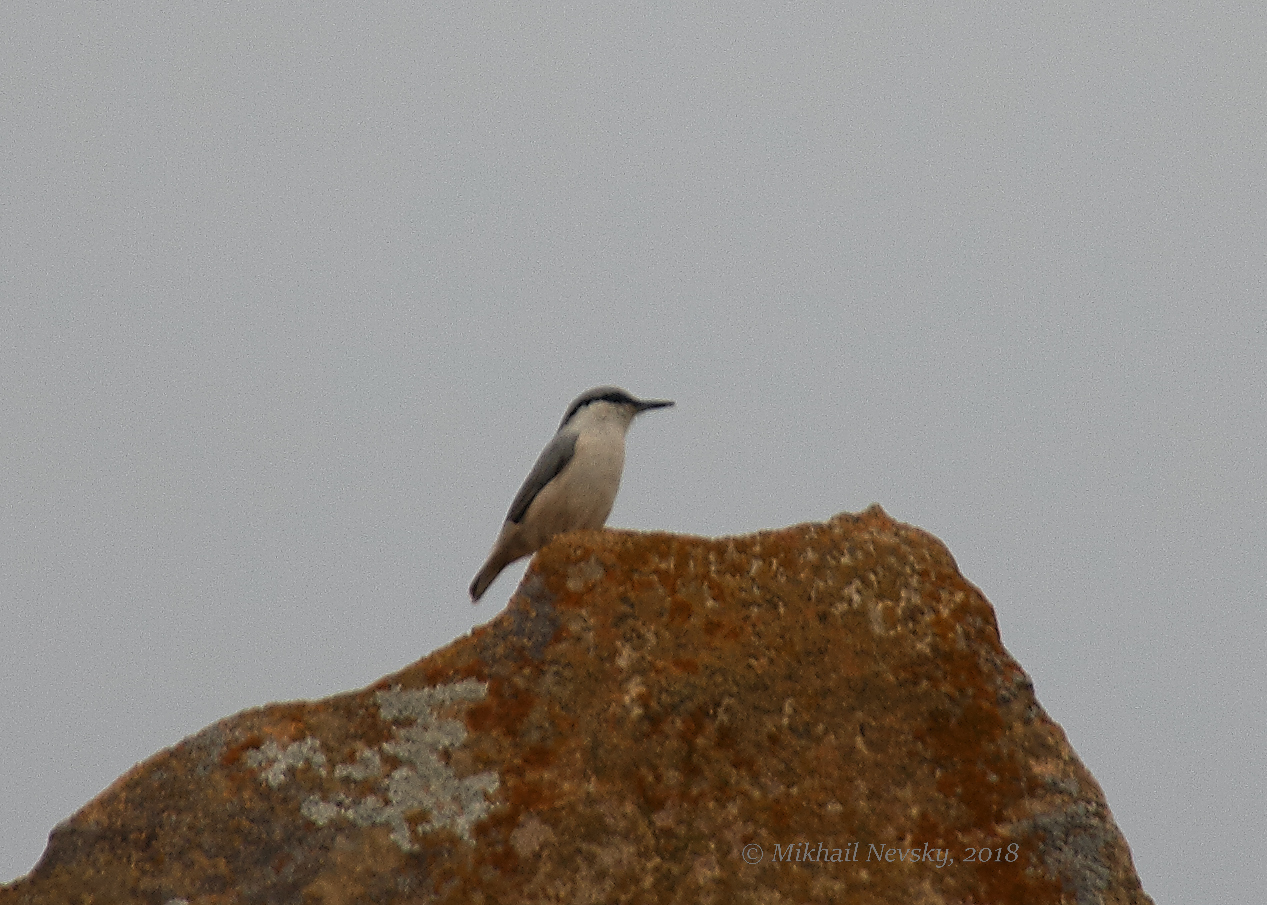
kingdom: Animalia
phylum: Chordata
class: Aves
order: Passeriformes
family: Sittidae
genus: Sitta
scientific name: Sitta neumayer
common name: Western rock nuthatch
